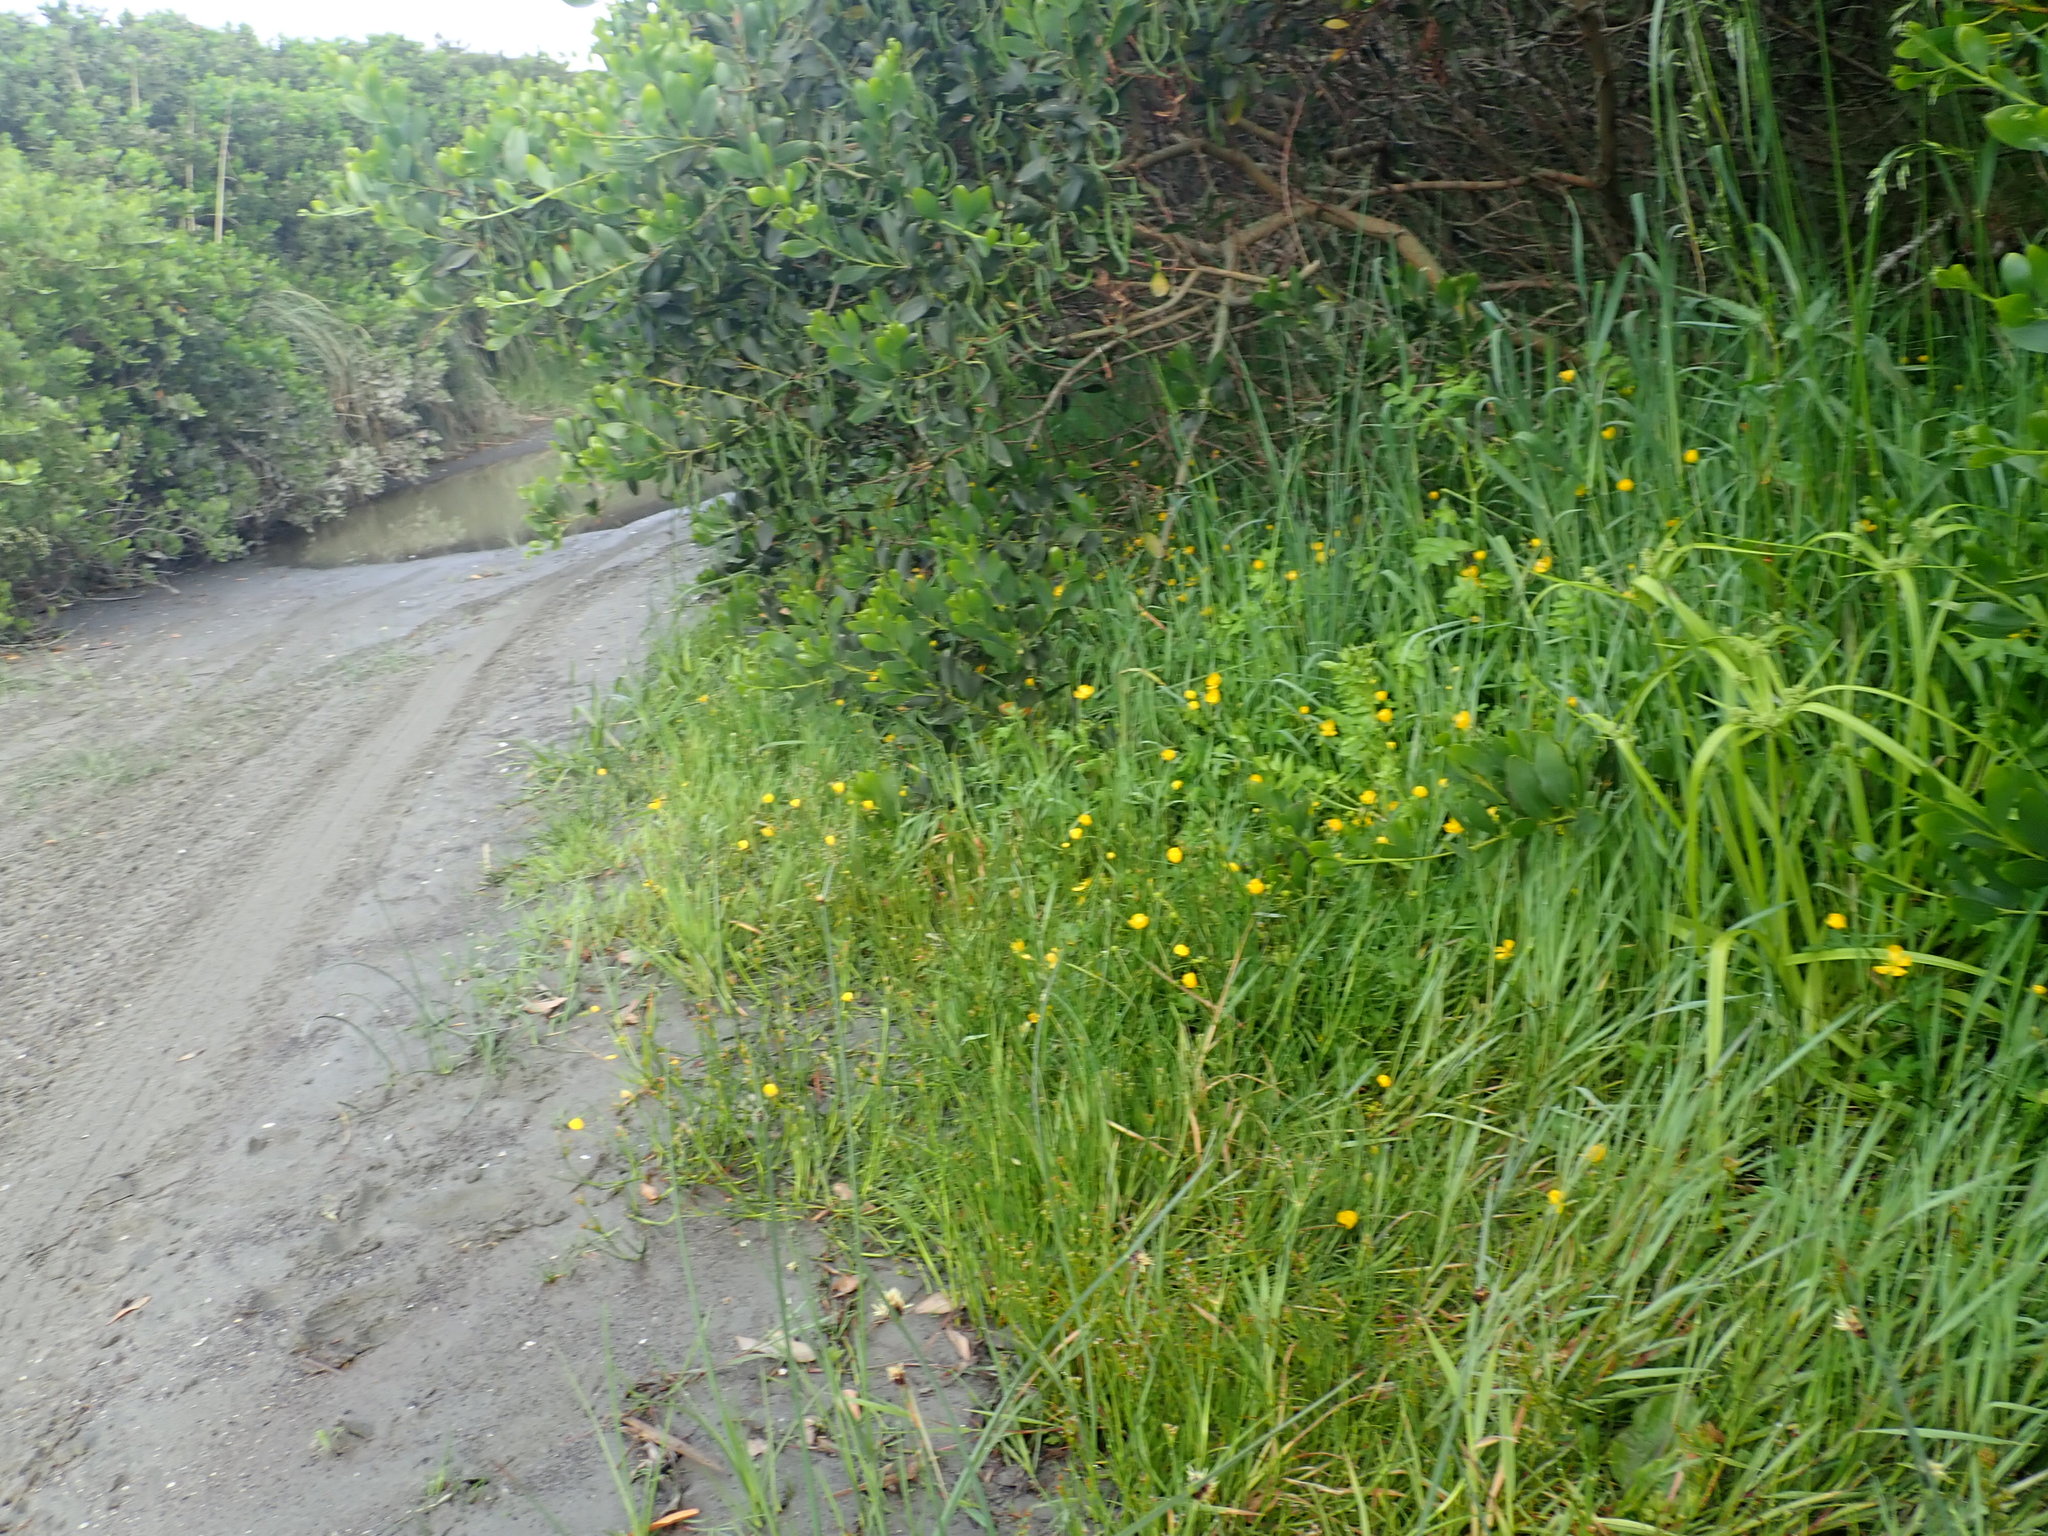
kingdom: Plantae
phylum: Tracheophyta
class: Magnoliopsida
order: Ranunculales
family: Ranunculaceae
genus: Ranunculus
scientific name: Ranunculus repens
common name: Creeping buttercup
